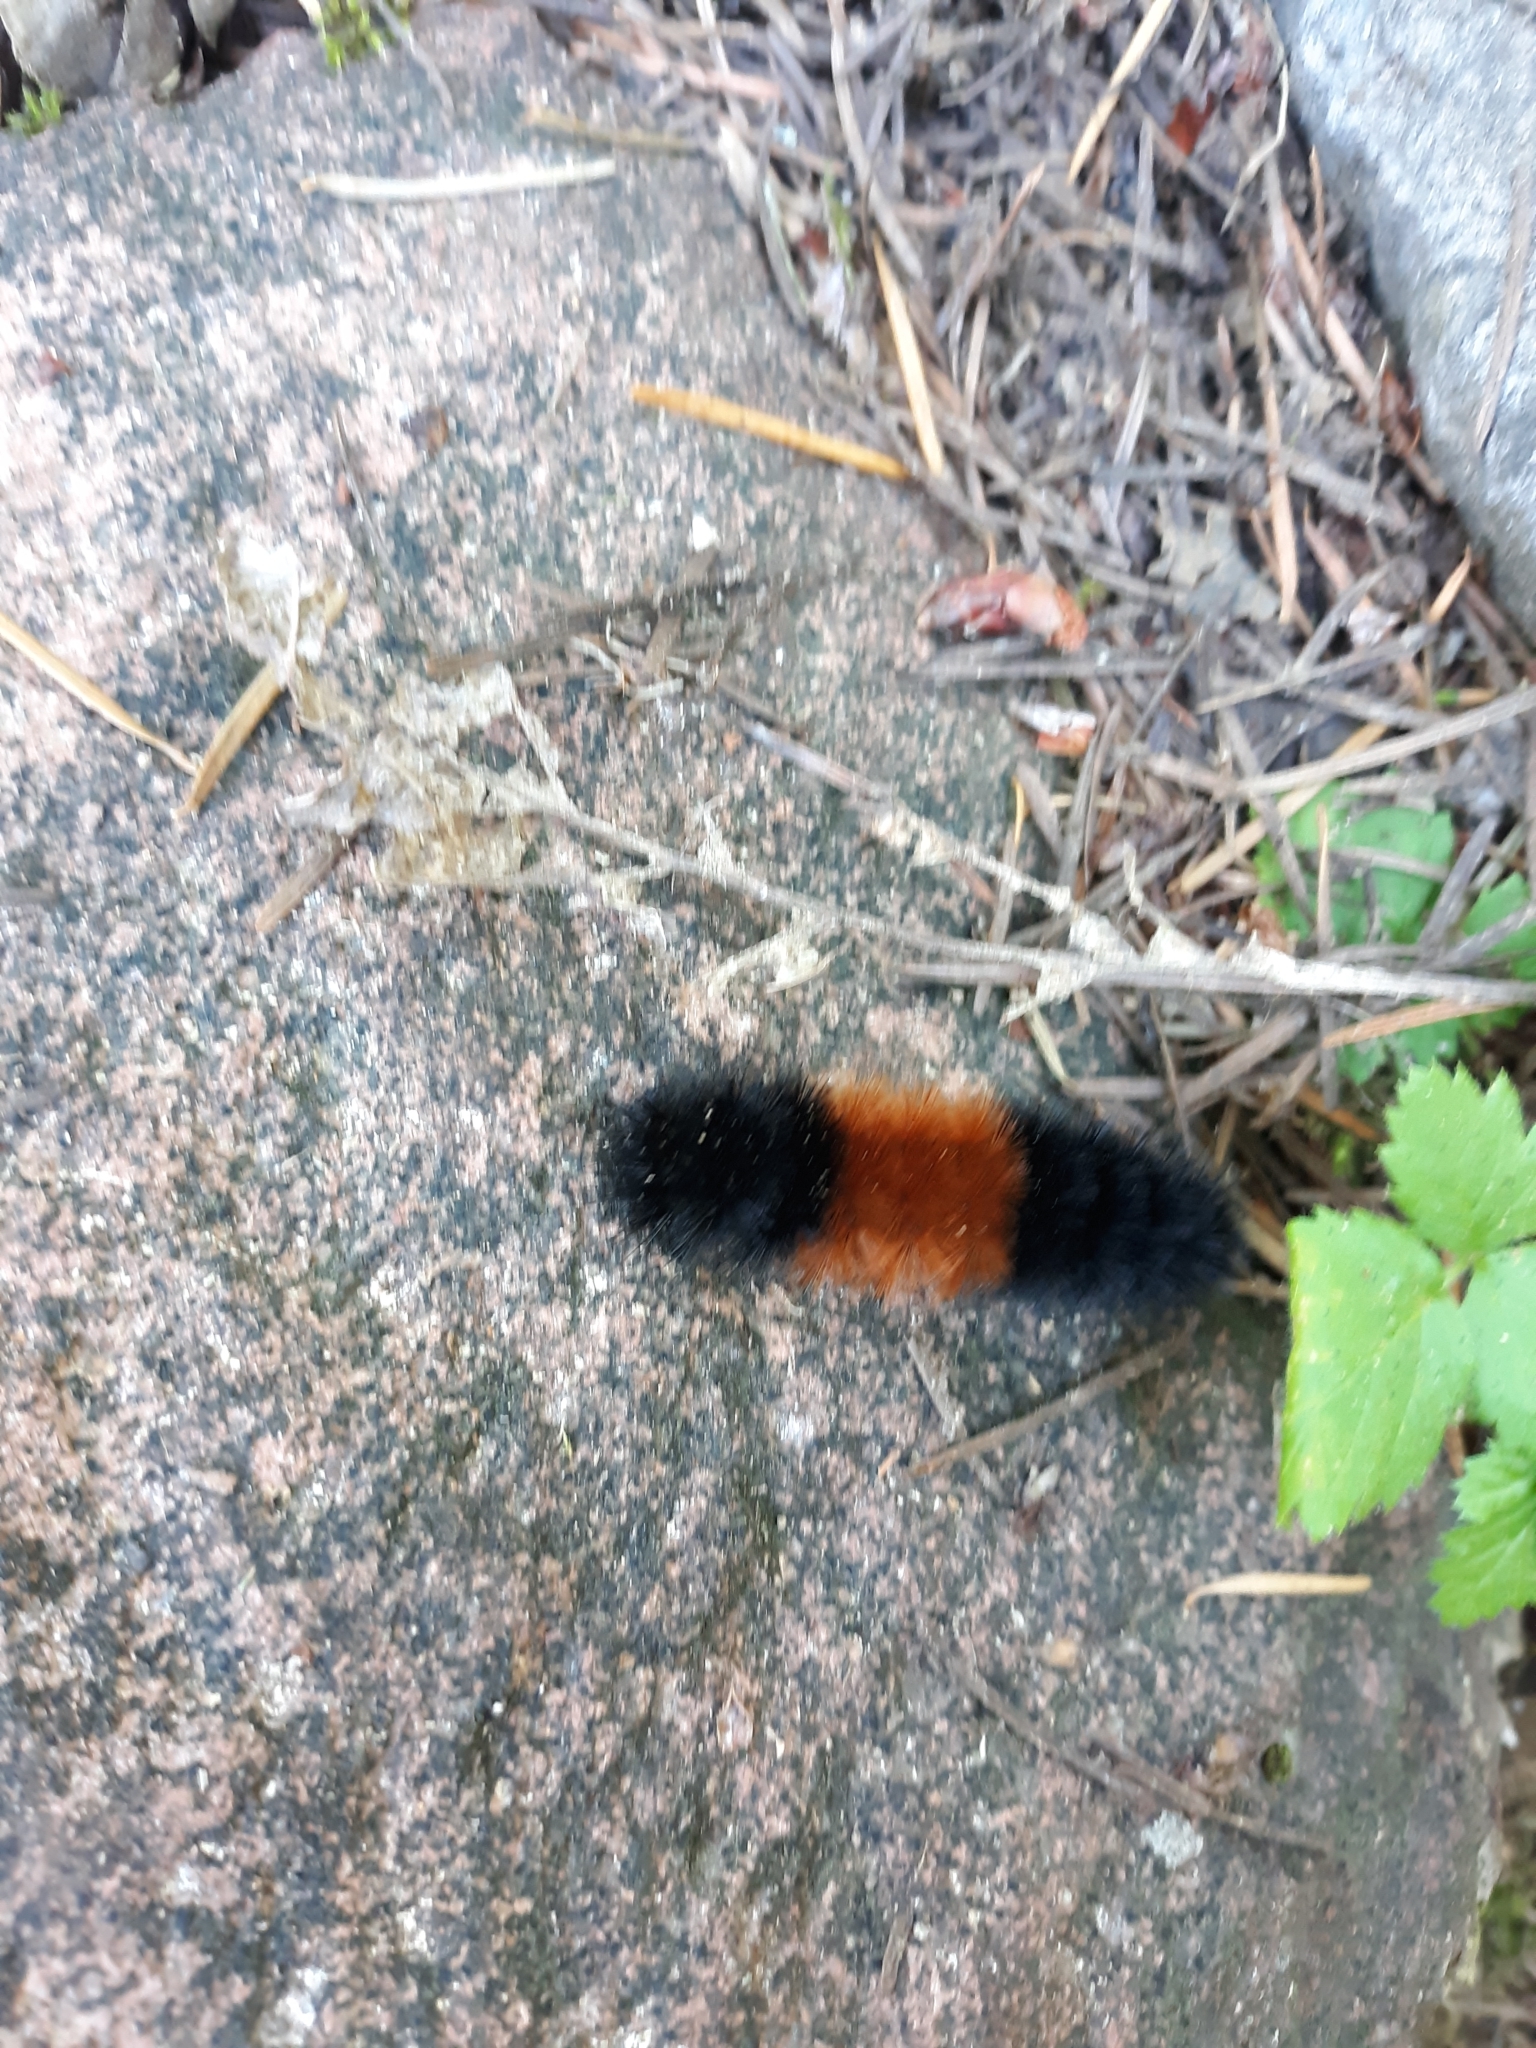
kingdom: Animalia
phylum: Arthropoda
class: Insecta
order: Lepidoptera
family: Erebidae
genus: Pyrrharctia
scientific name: Pyrrharctia isabella
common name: Isabella tiger moth
